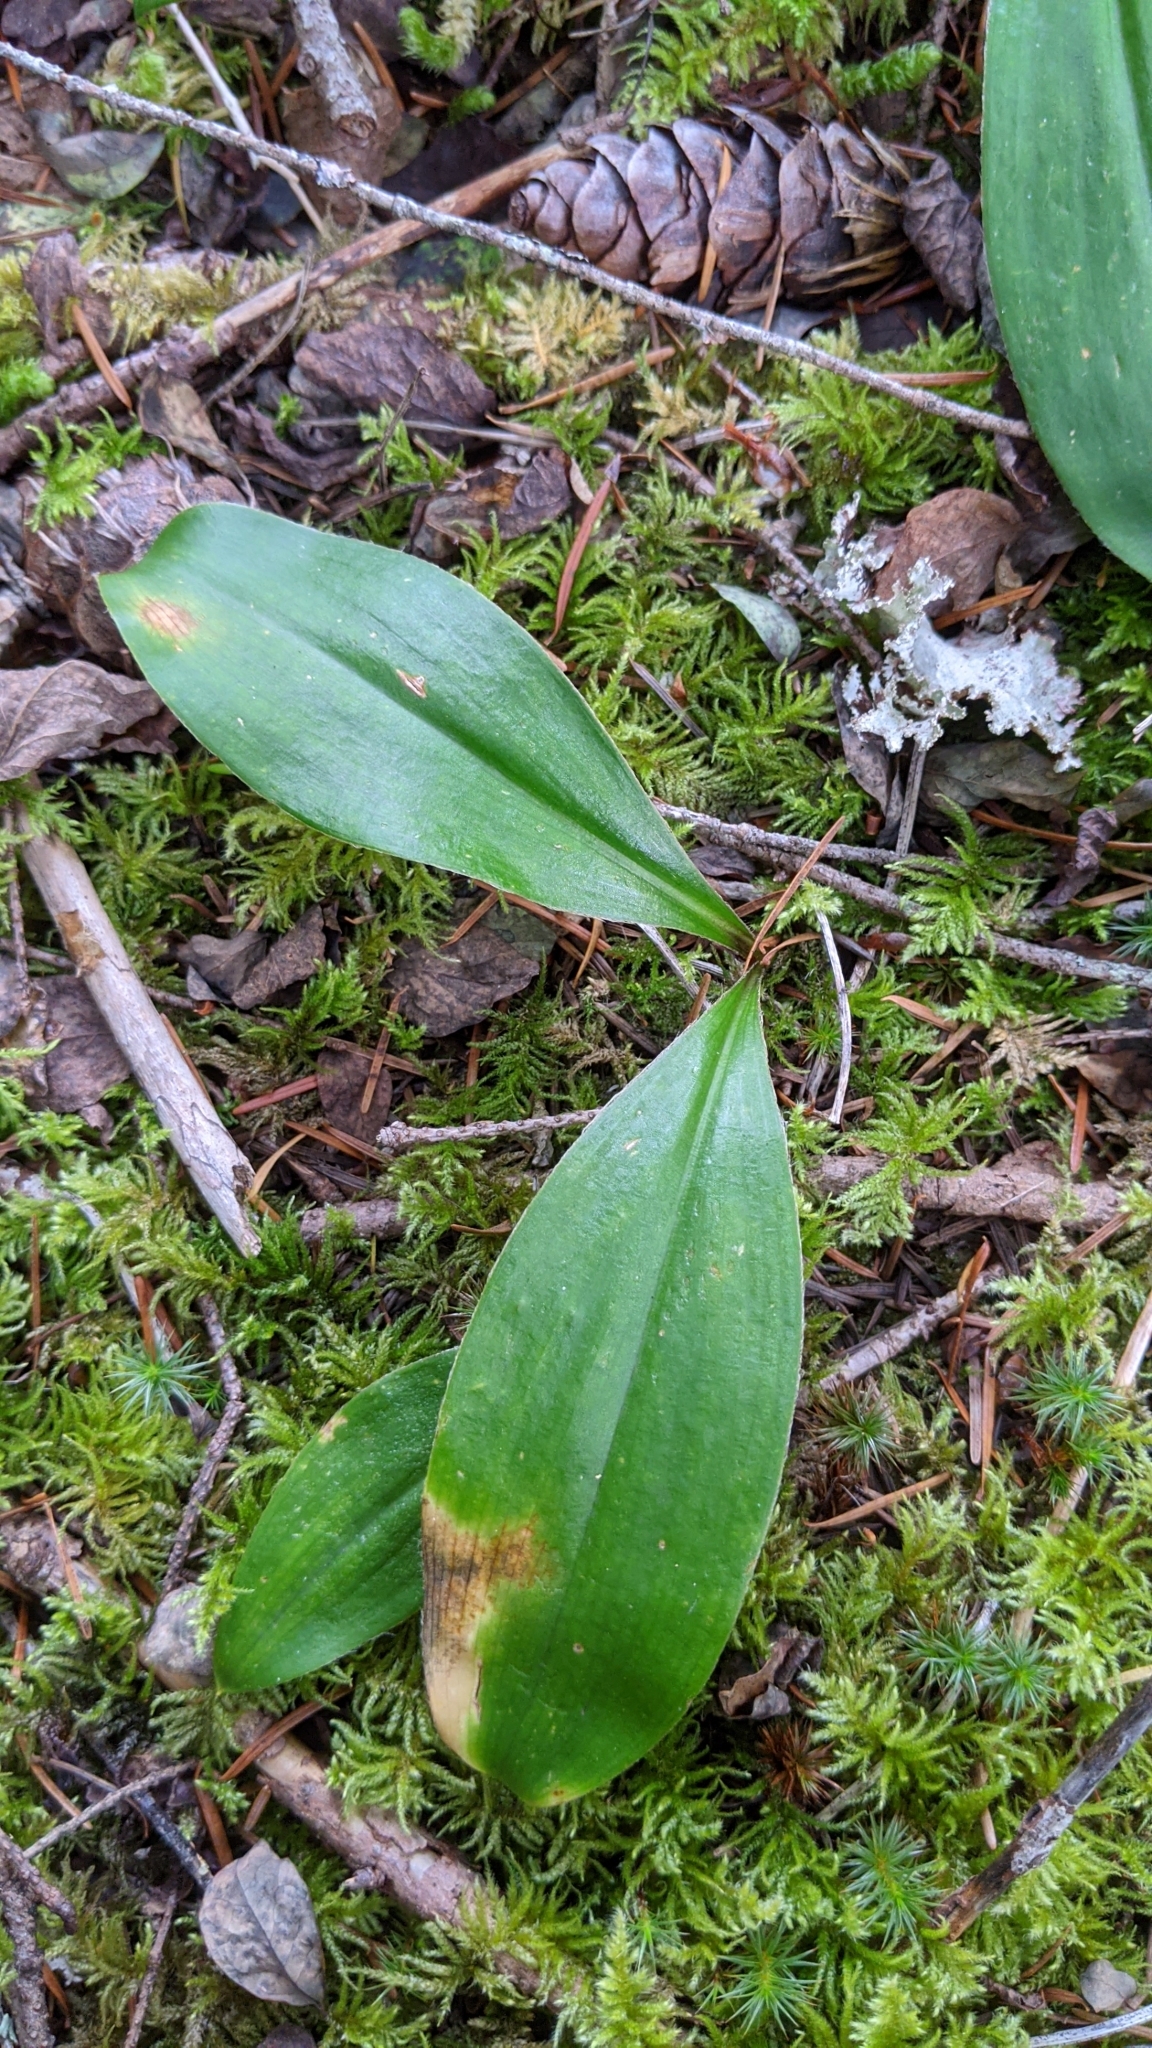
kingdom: Plantae
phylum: Tracheophyta
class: Liliopsida
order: Liliales
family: Liliaceae
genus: Clintonia
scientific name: Clintonia uniflora
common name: Queen's cup
